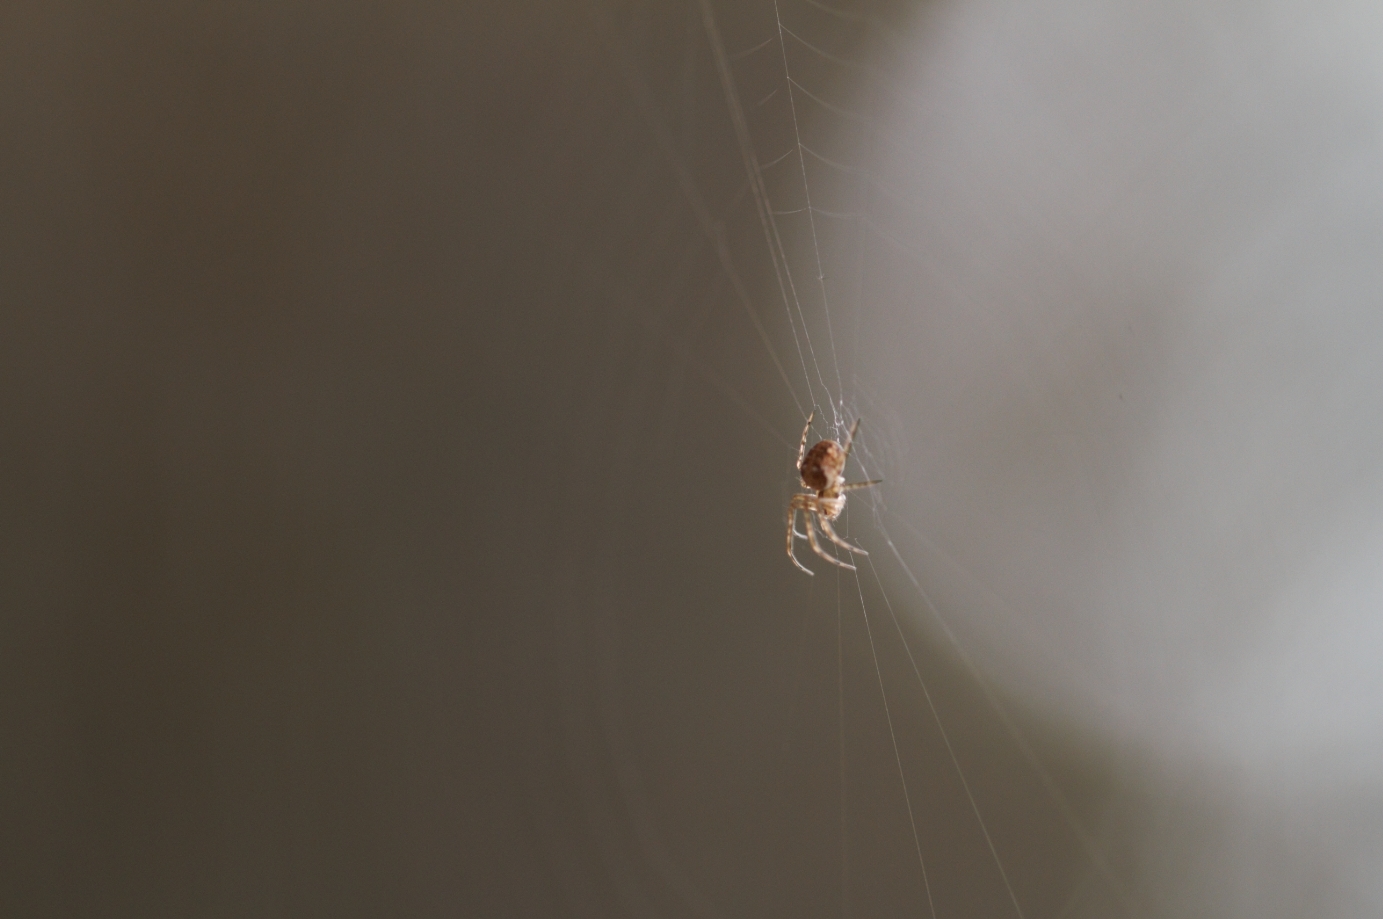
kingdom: Animalia
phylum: Arthropoda
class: Arachnida
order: Araneae
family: Tetragnathidae
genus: Metellina
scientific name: Metellina
